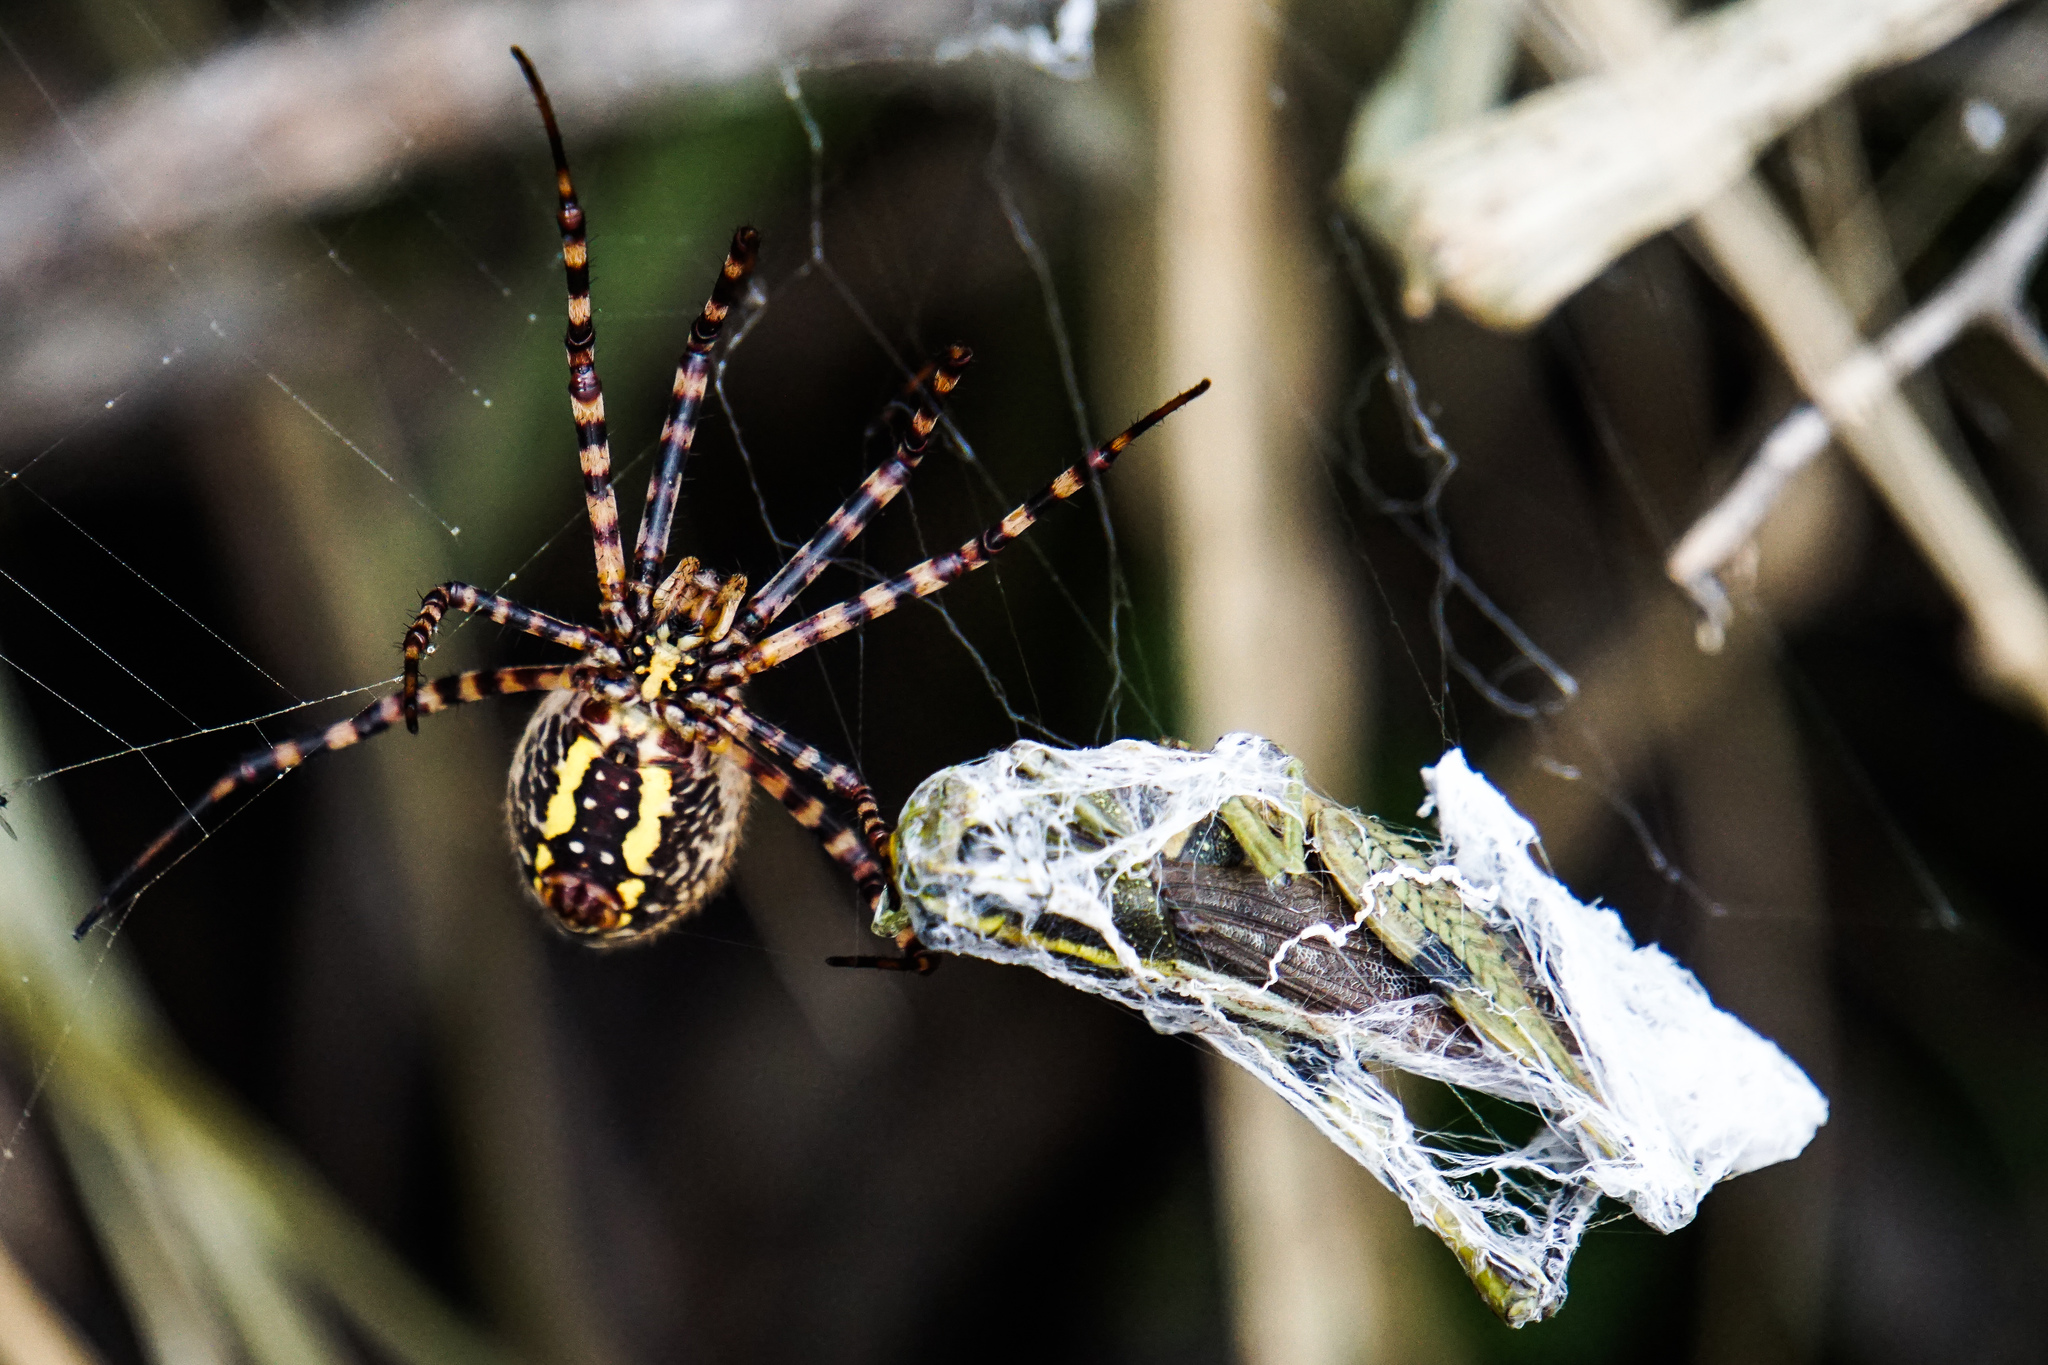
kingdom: Animalia
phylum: Arthropoda
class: Arachnida
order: Araneae
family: Araneidae
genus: Argiope
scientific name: Argiope trifasciata
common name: Banded garden spider
